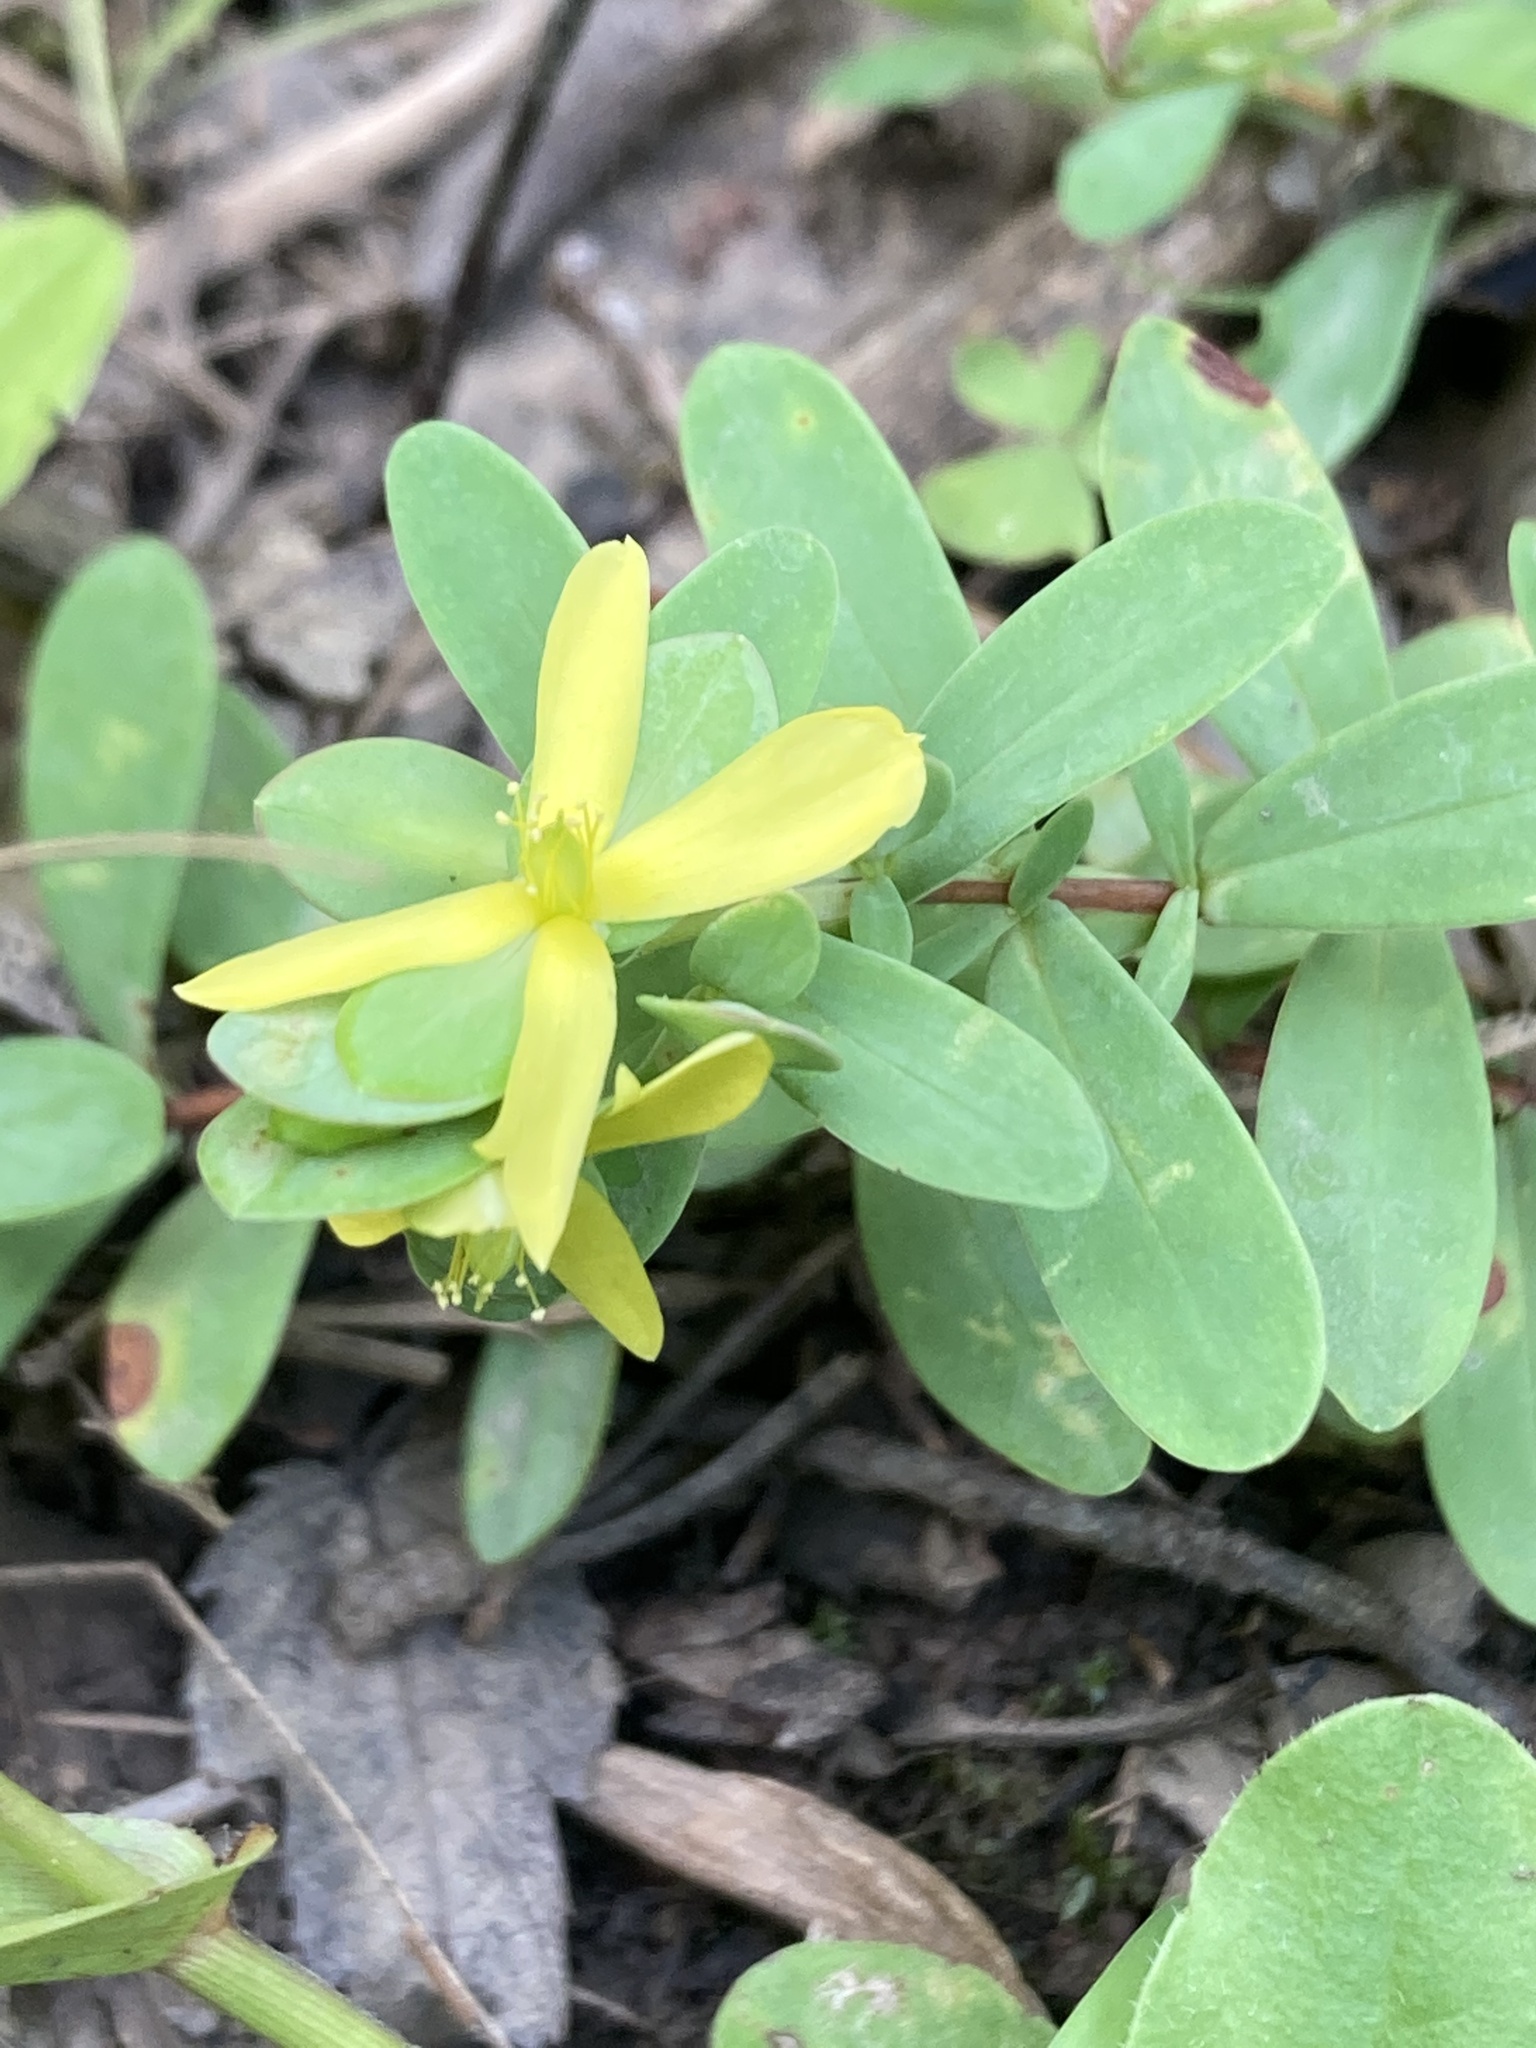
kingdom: Plantae
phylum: Tracheophyta
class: Magnoliopsida
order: Malpighiales
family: Hypericaceae
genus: Hypericum
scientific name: Hypericum hypericoides
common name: St. andrew's cross
